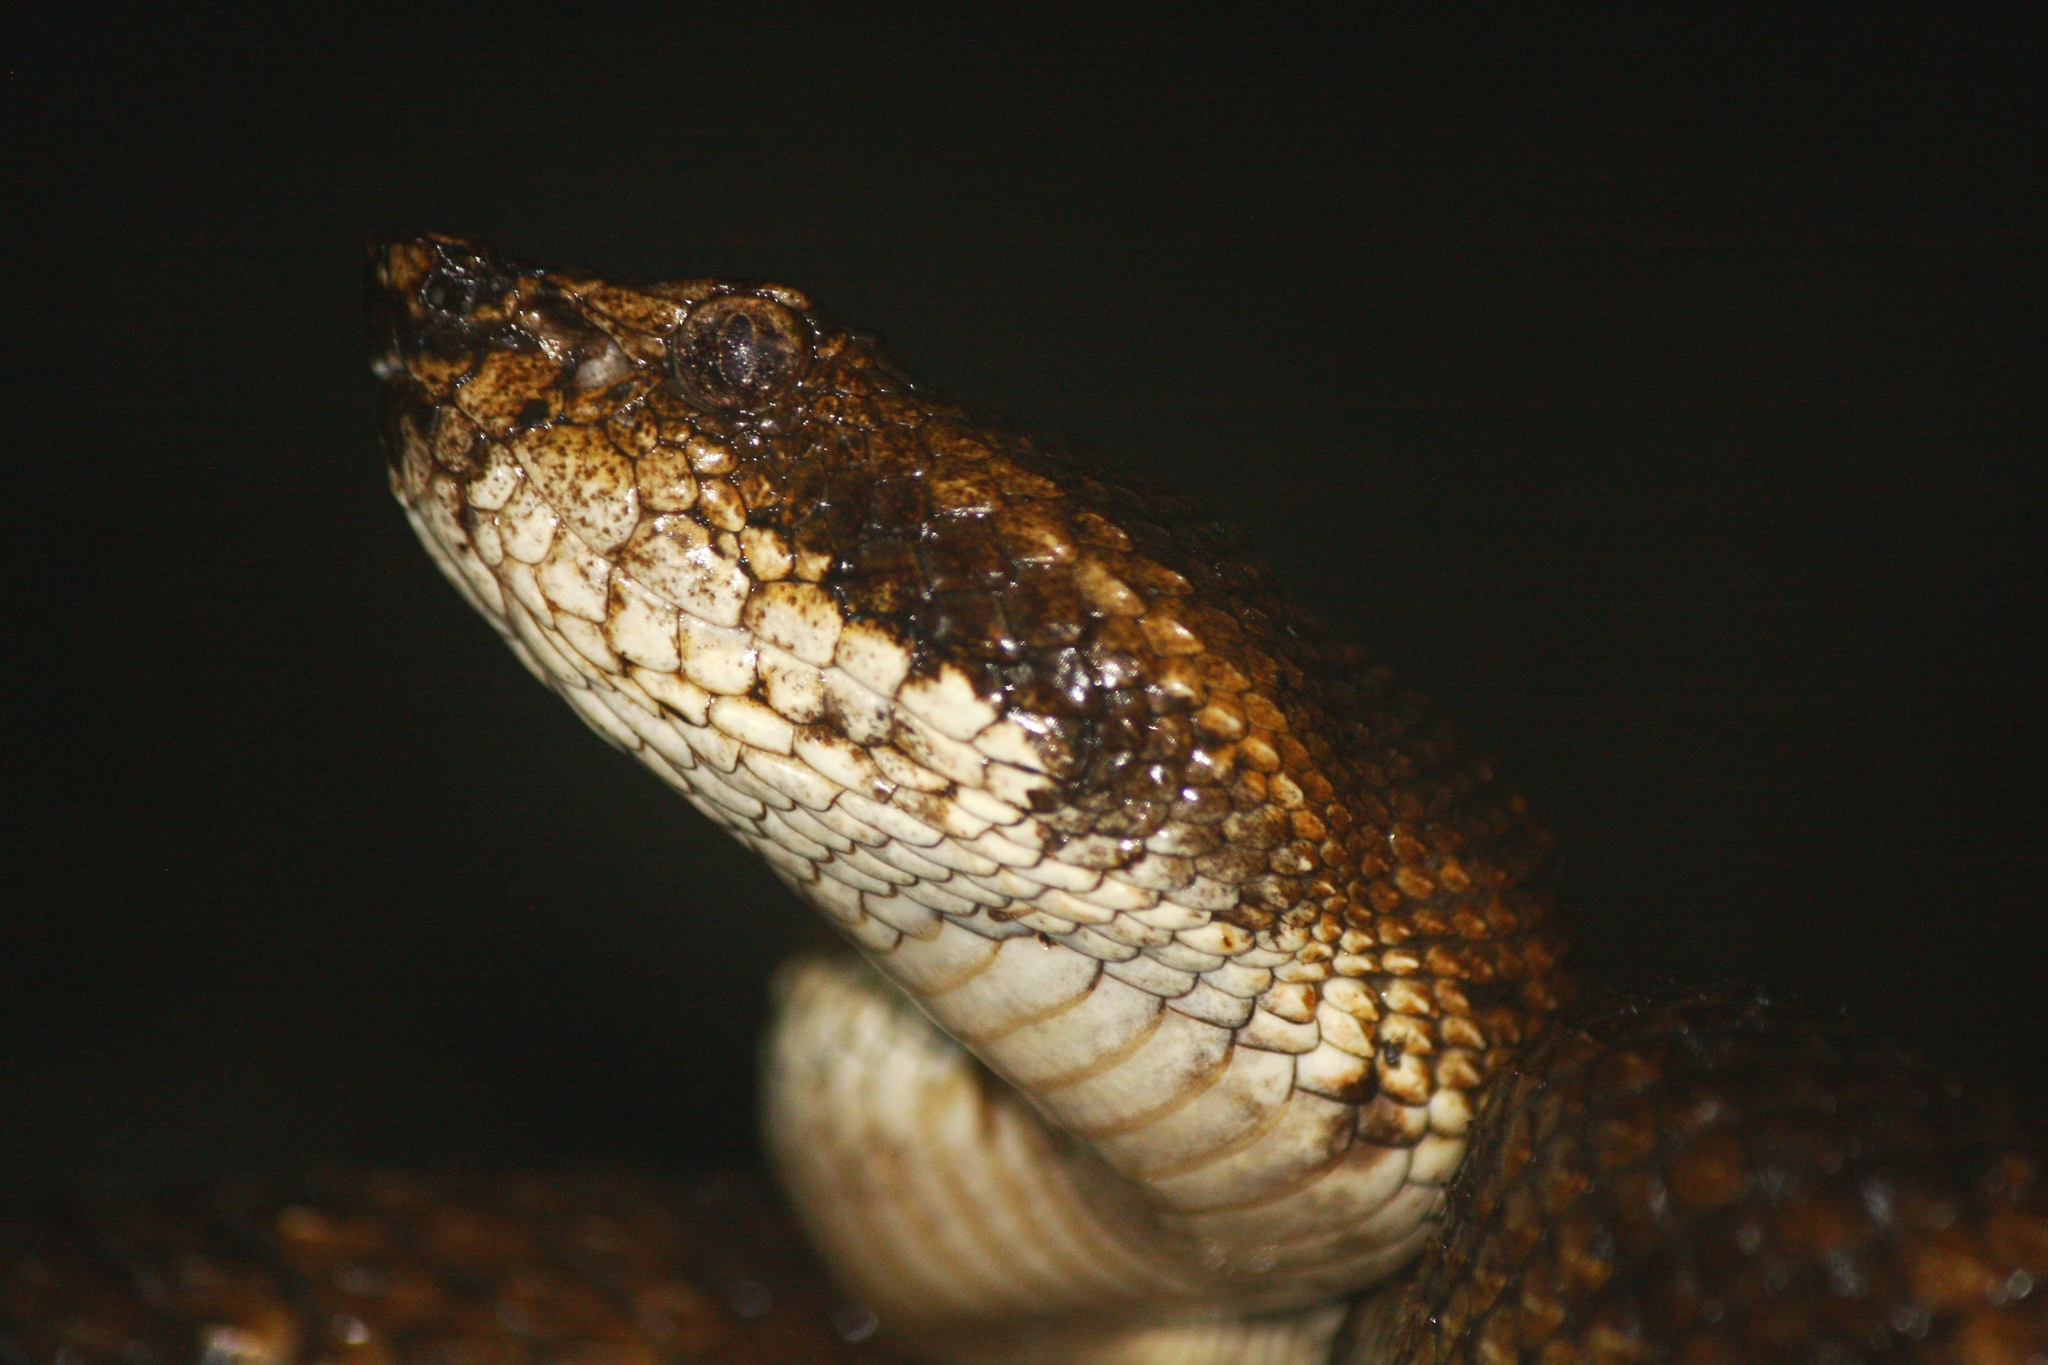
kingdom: Animalia
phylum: Chordata
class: Squamata
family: Viperidae
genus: Ovophis
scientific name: Ovophis okinavensis
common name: Okinawa pitviper
